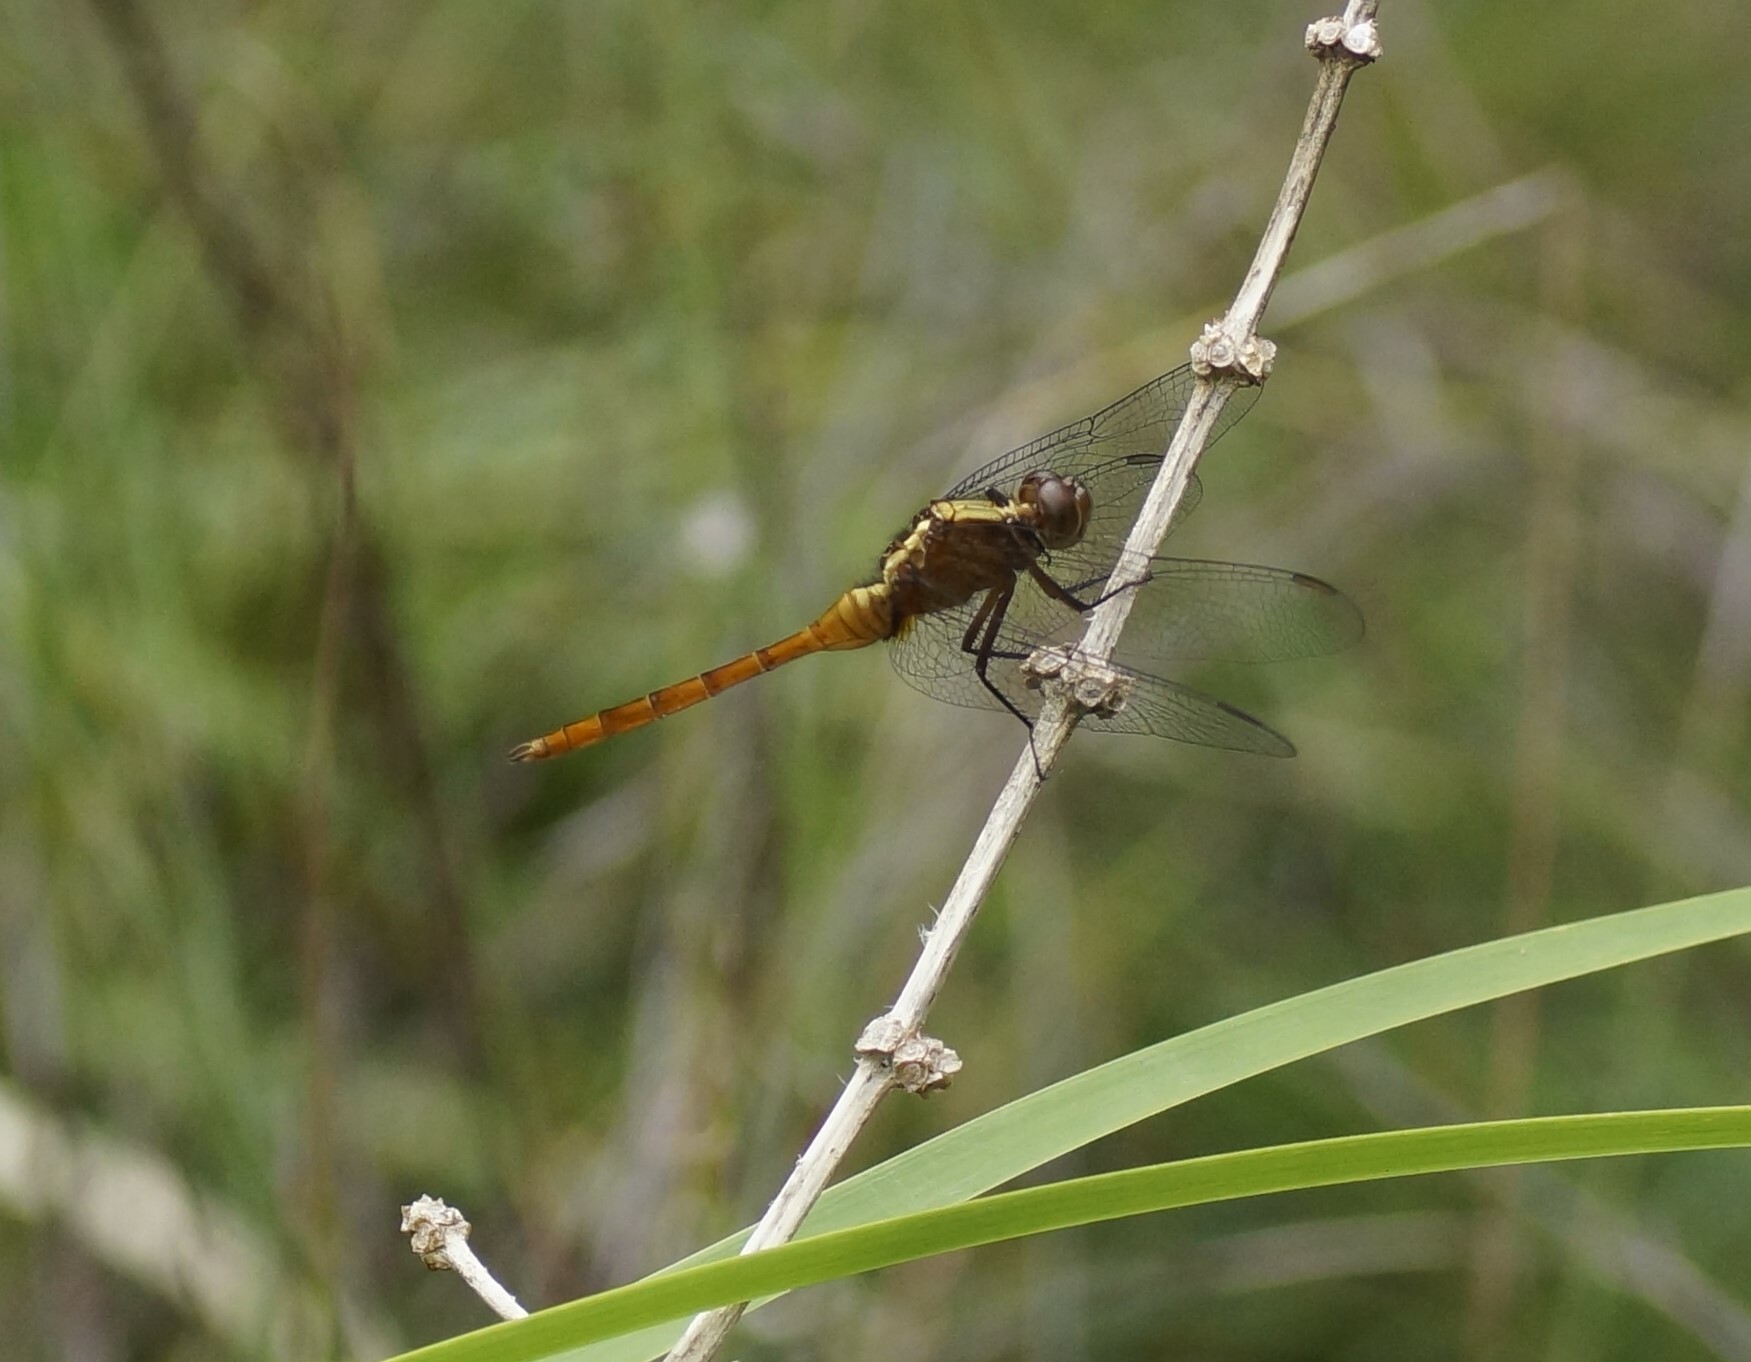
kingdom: Animalia
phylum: Arthropoda
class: Insecta
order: Odonata
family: Libellulidae
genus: Orthetrum
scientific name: Orthetrum villosovittatum
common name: Firery skimmer
